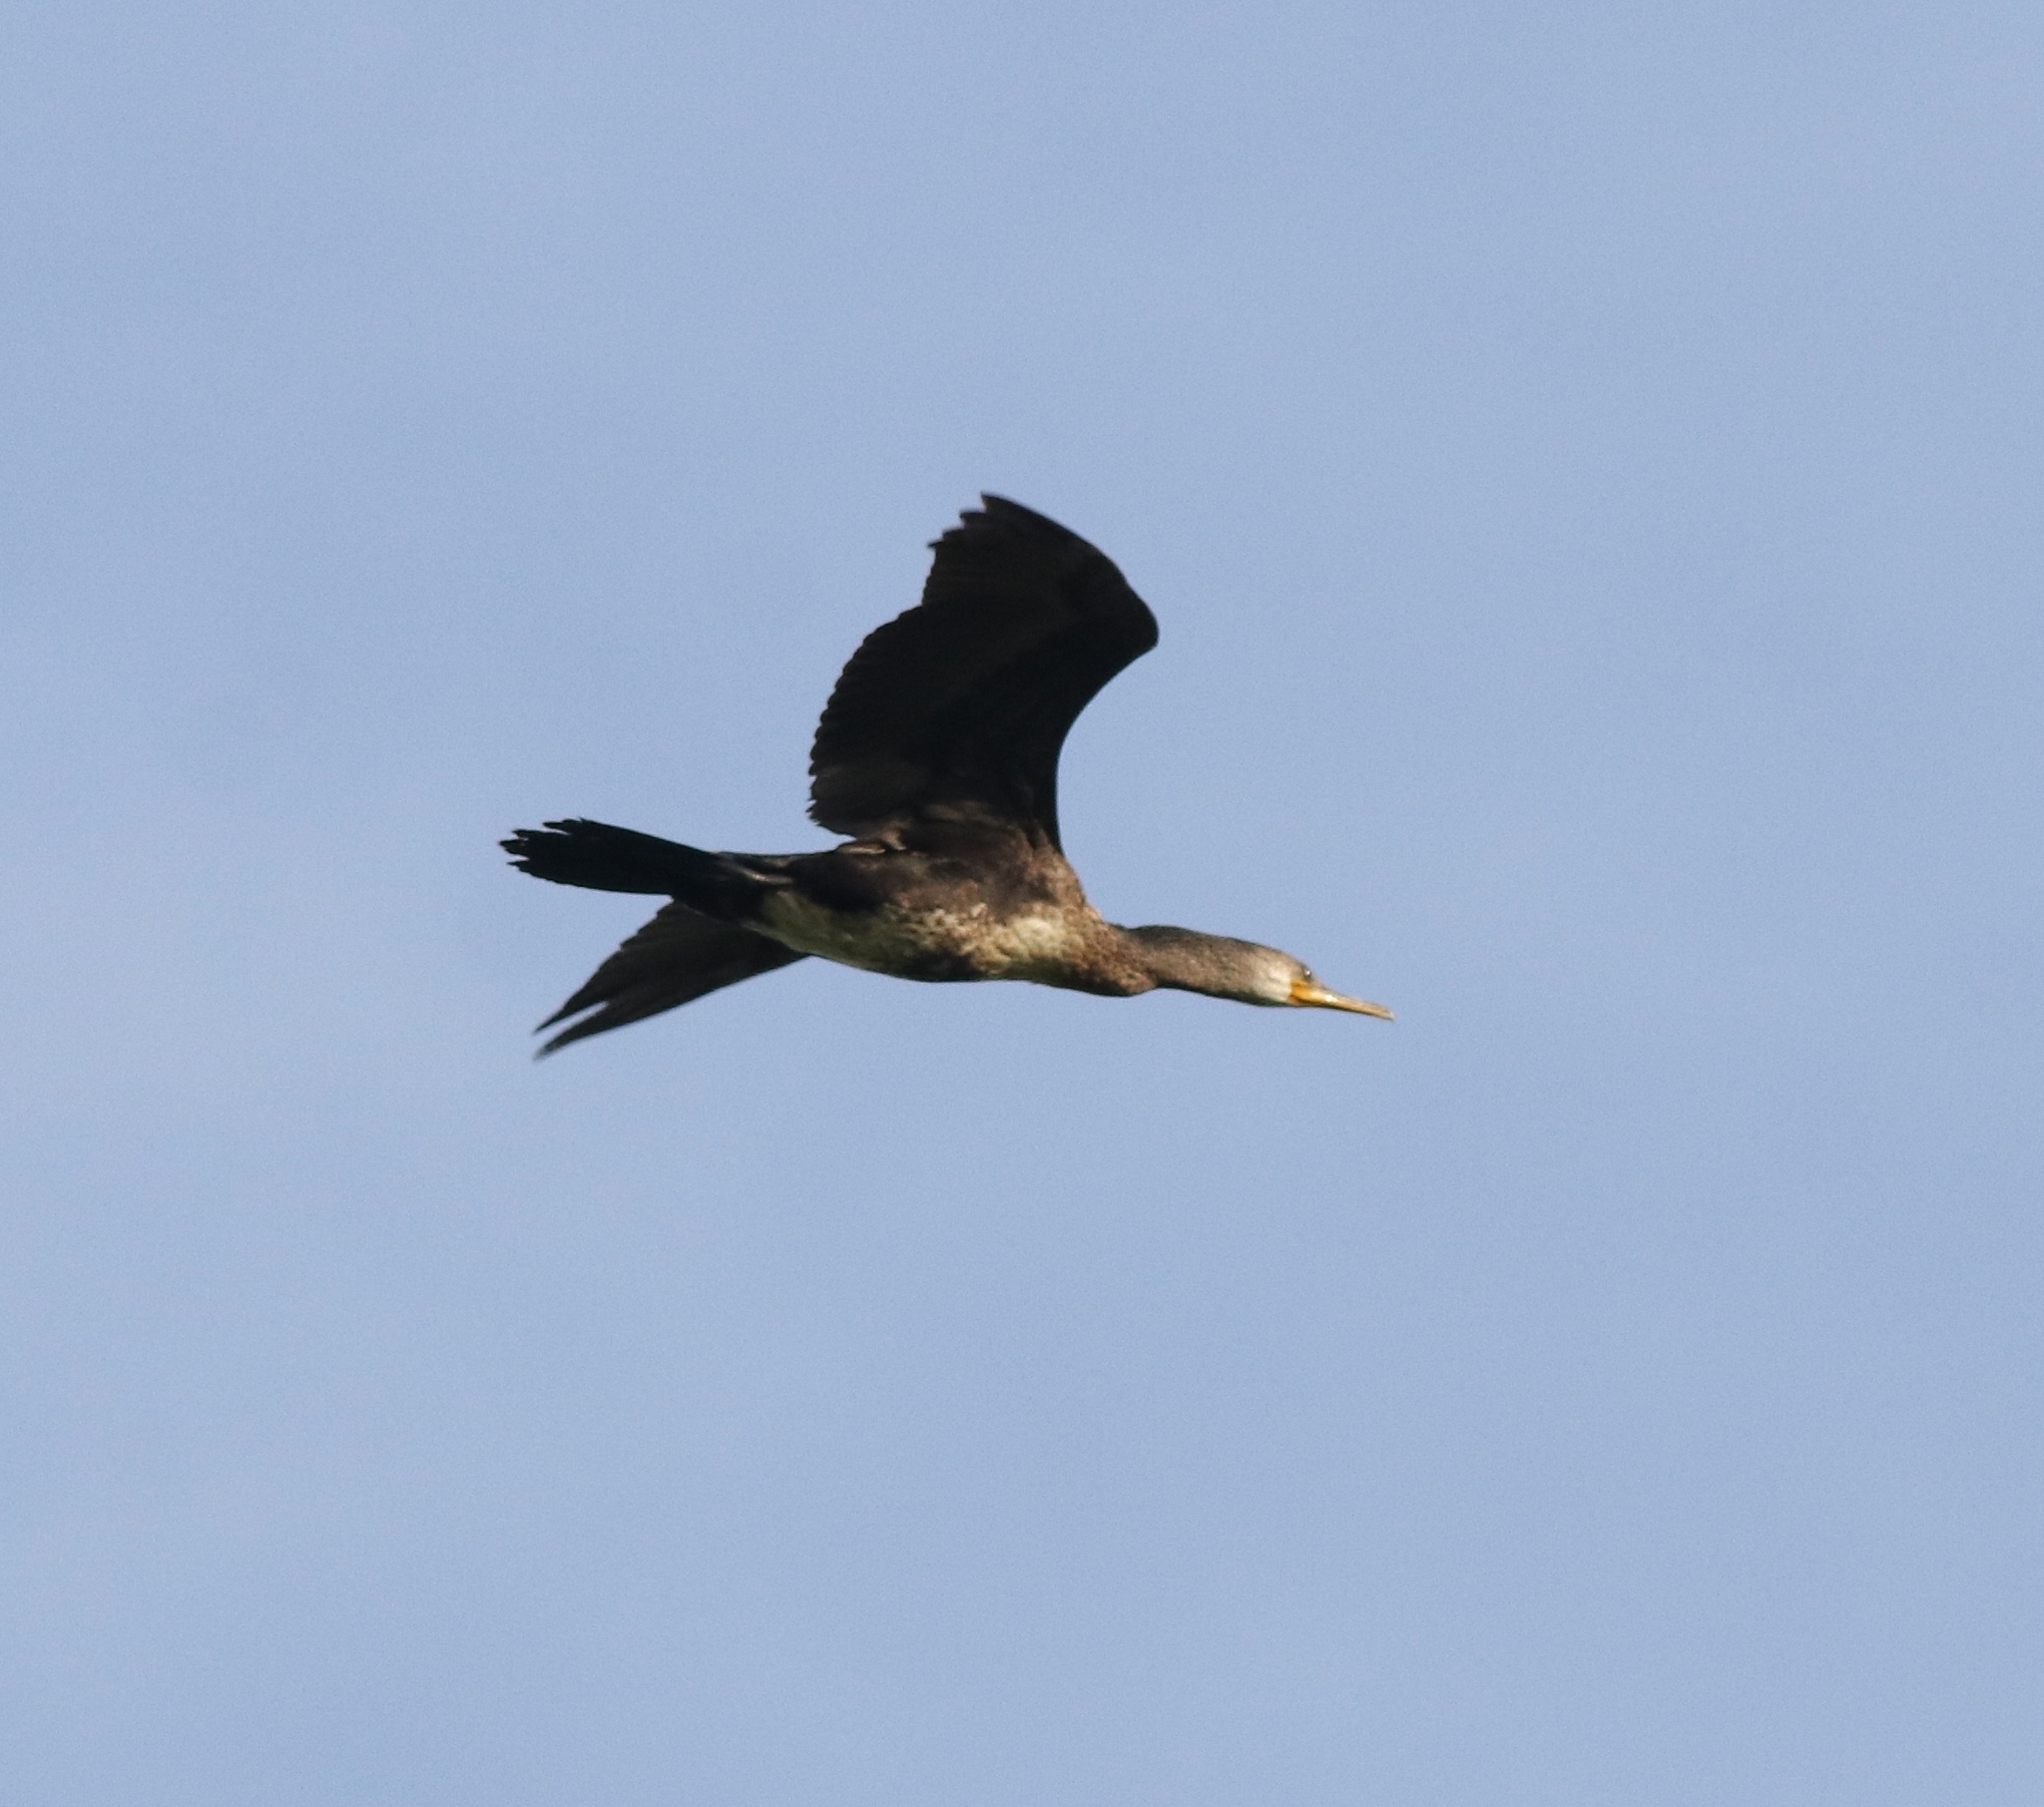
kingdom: Animalia
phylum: Chordata
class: Aves
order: Suliformes
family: Phalacrocoracidae
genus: Phalacrocorax
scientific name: Phalacrocorax fuscicollis
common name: Indian cormorant
